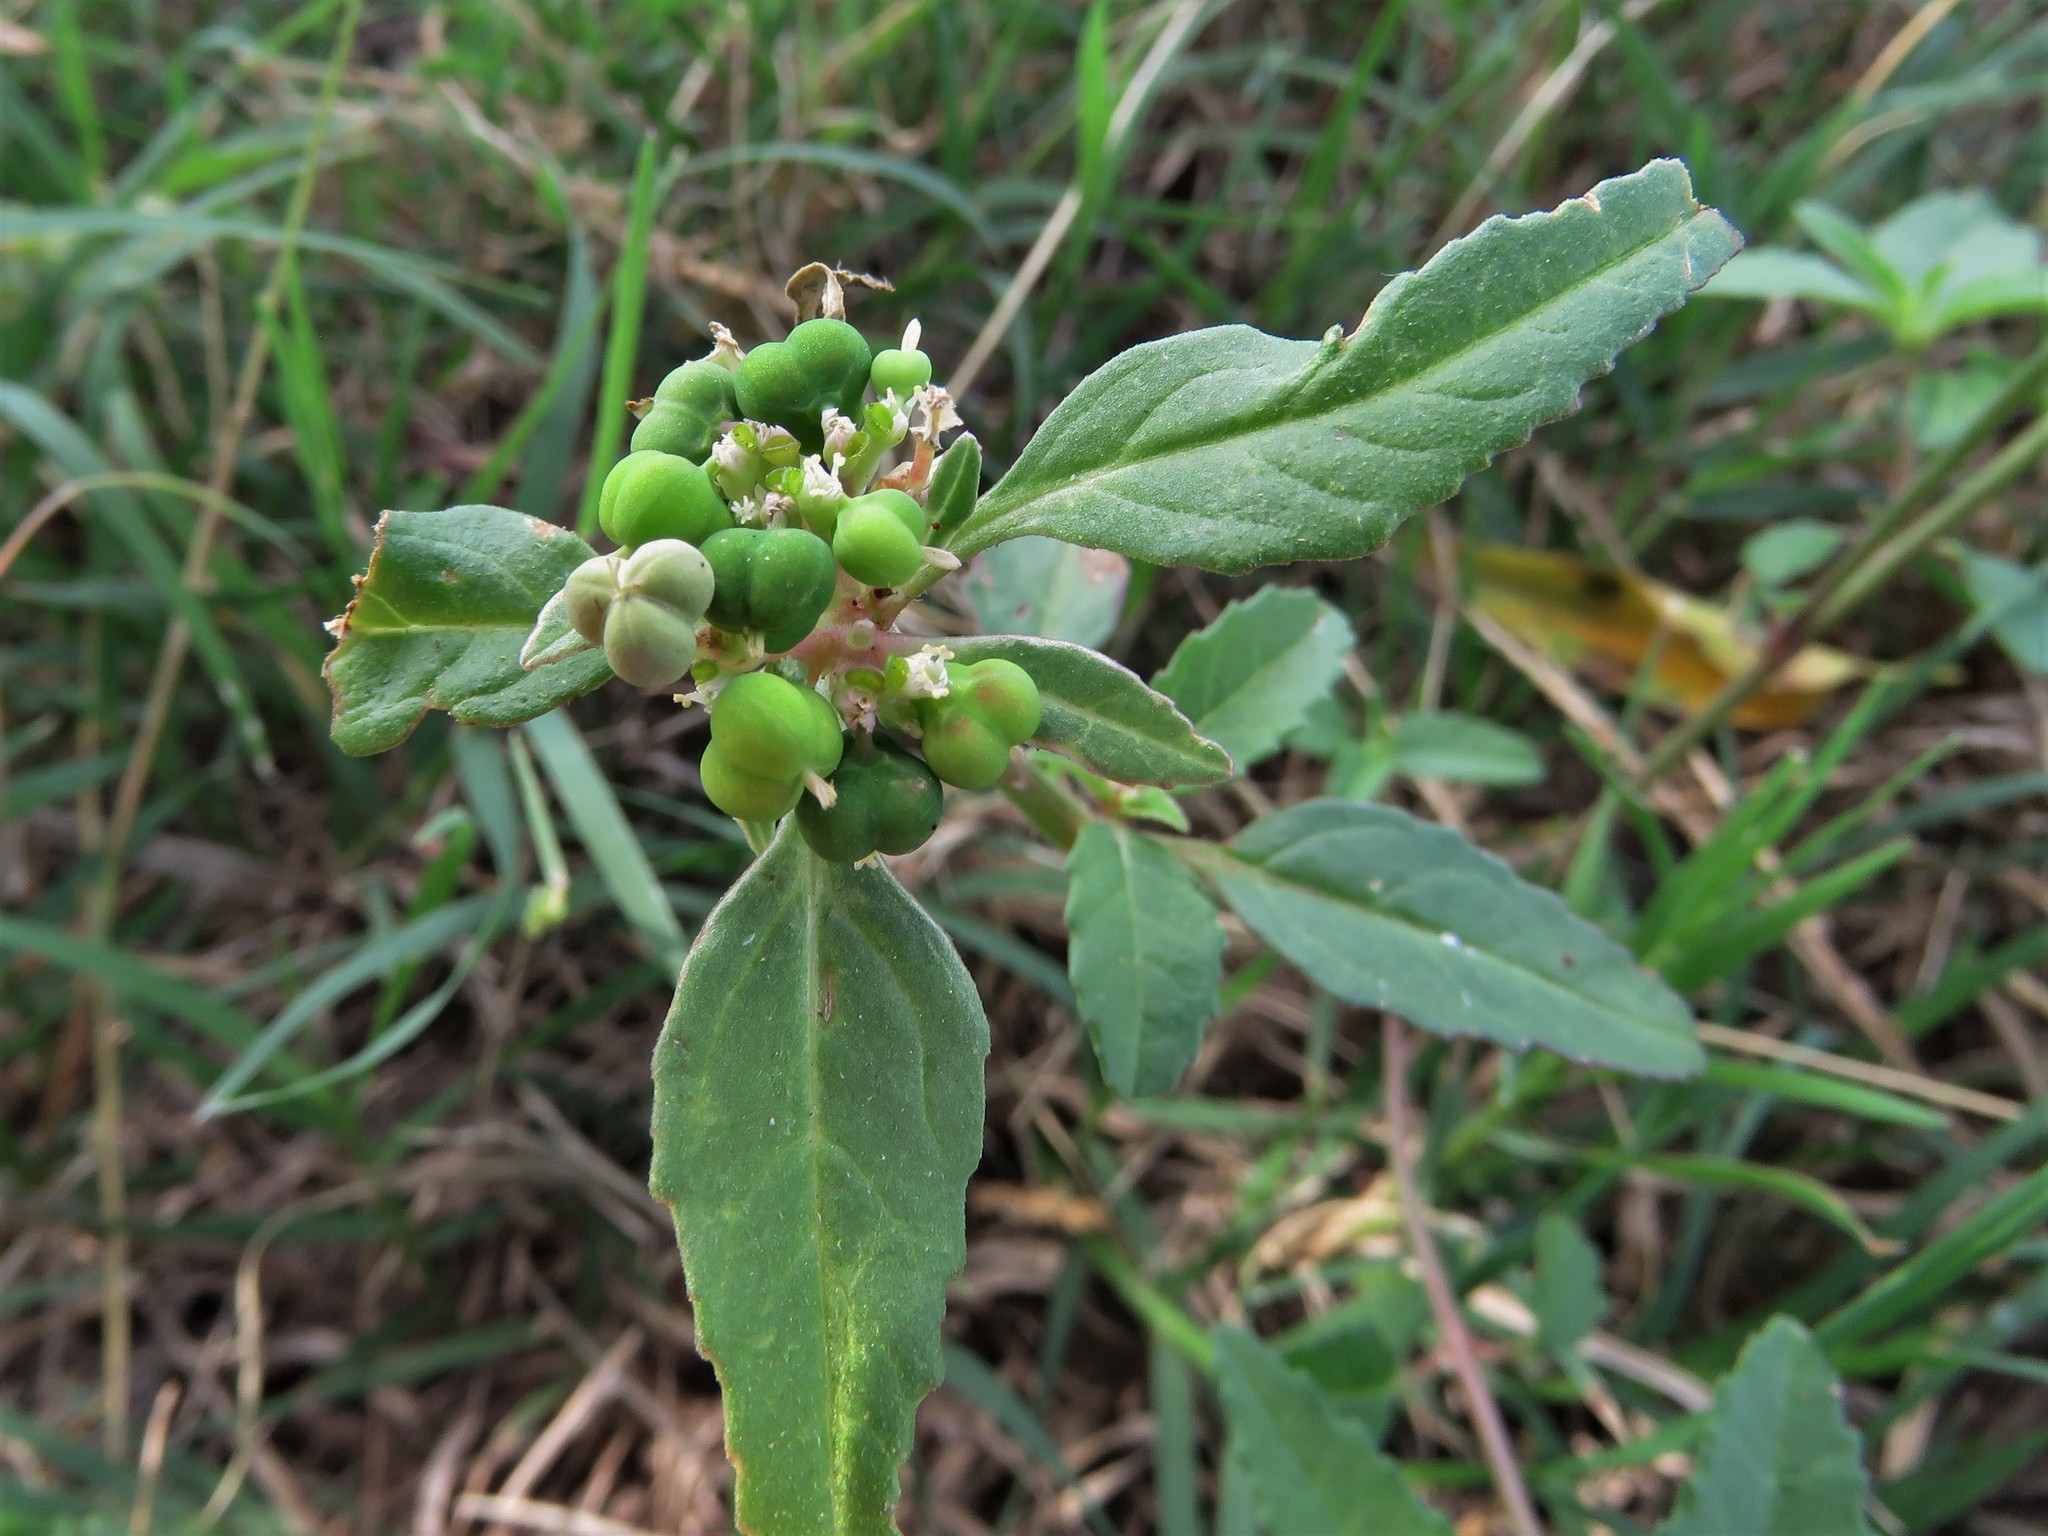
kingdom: Plantae
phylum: Tracheophyta
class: Magnoliopsida
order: Malpighiales
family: Euphorbiaceae
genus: Euphorbia
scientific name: Euphorbia dentata
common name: Dentate spurge
